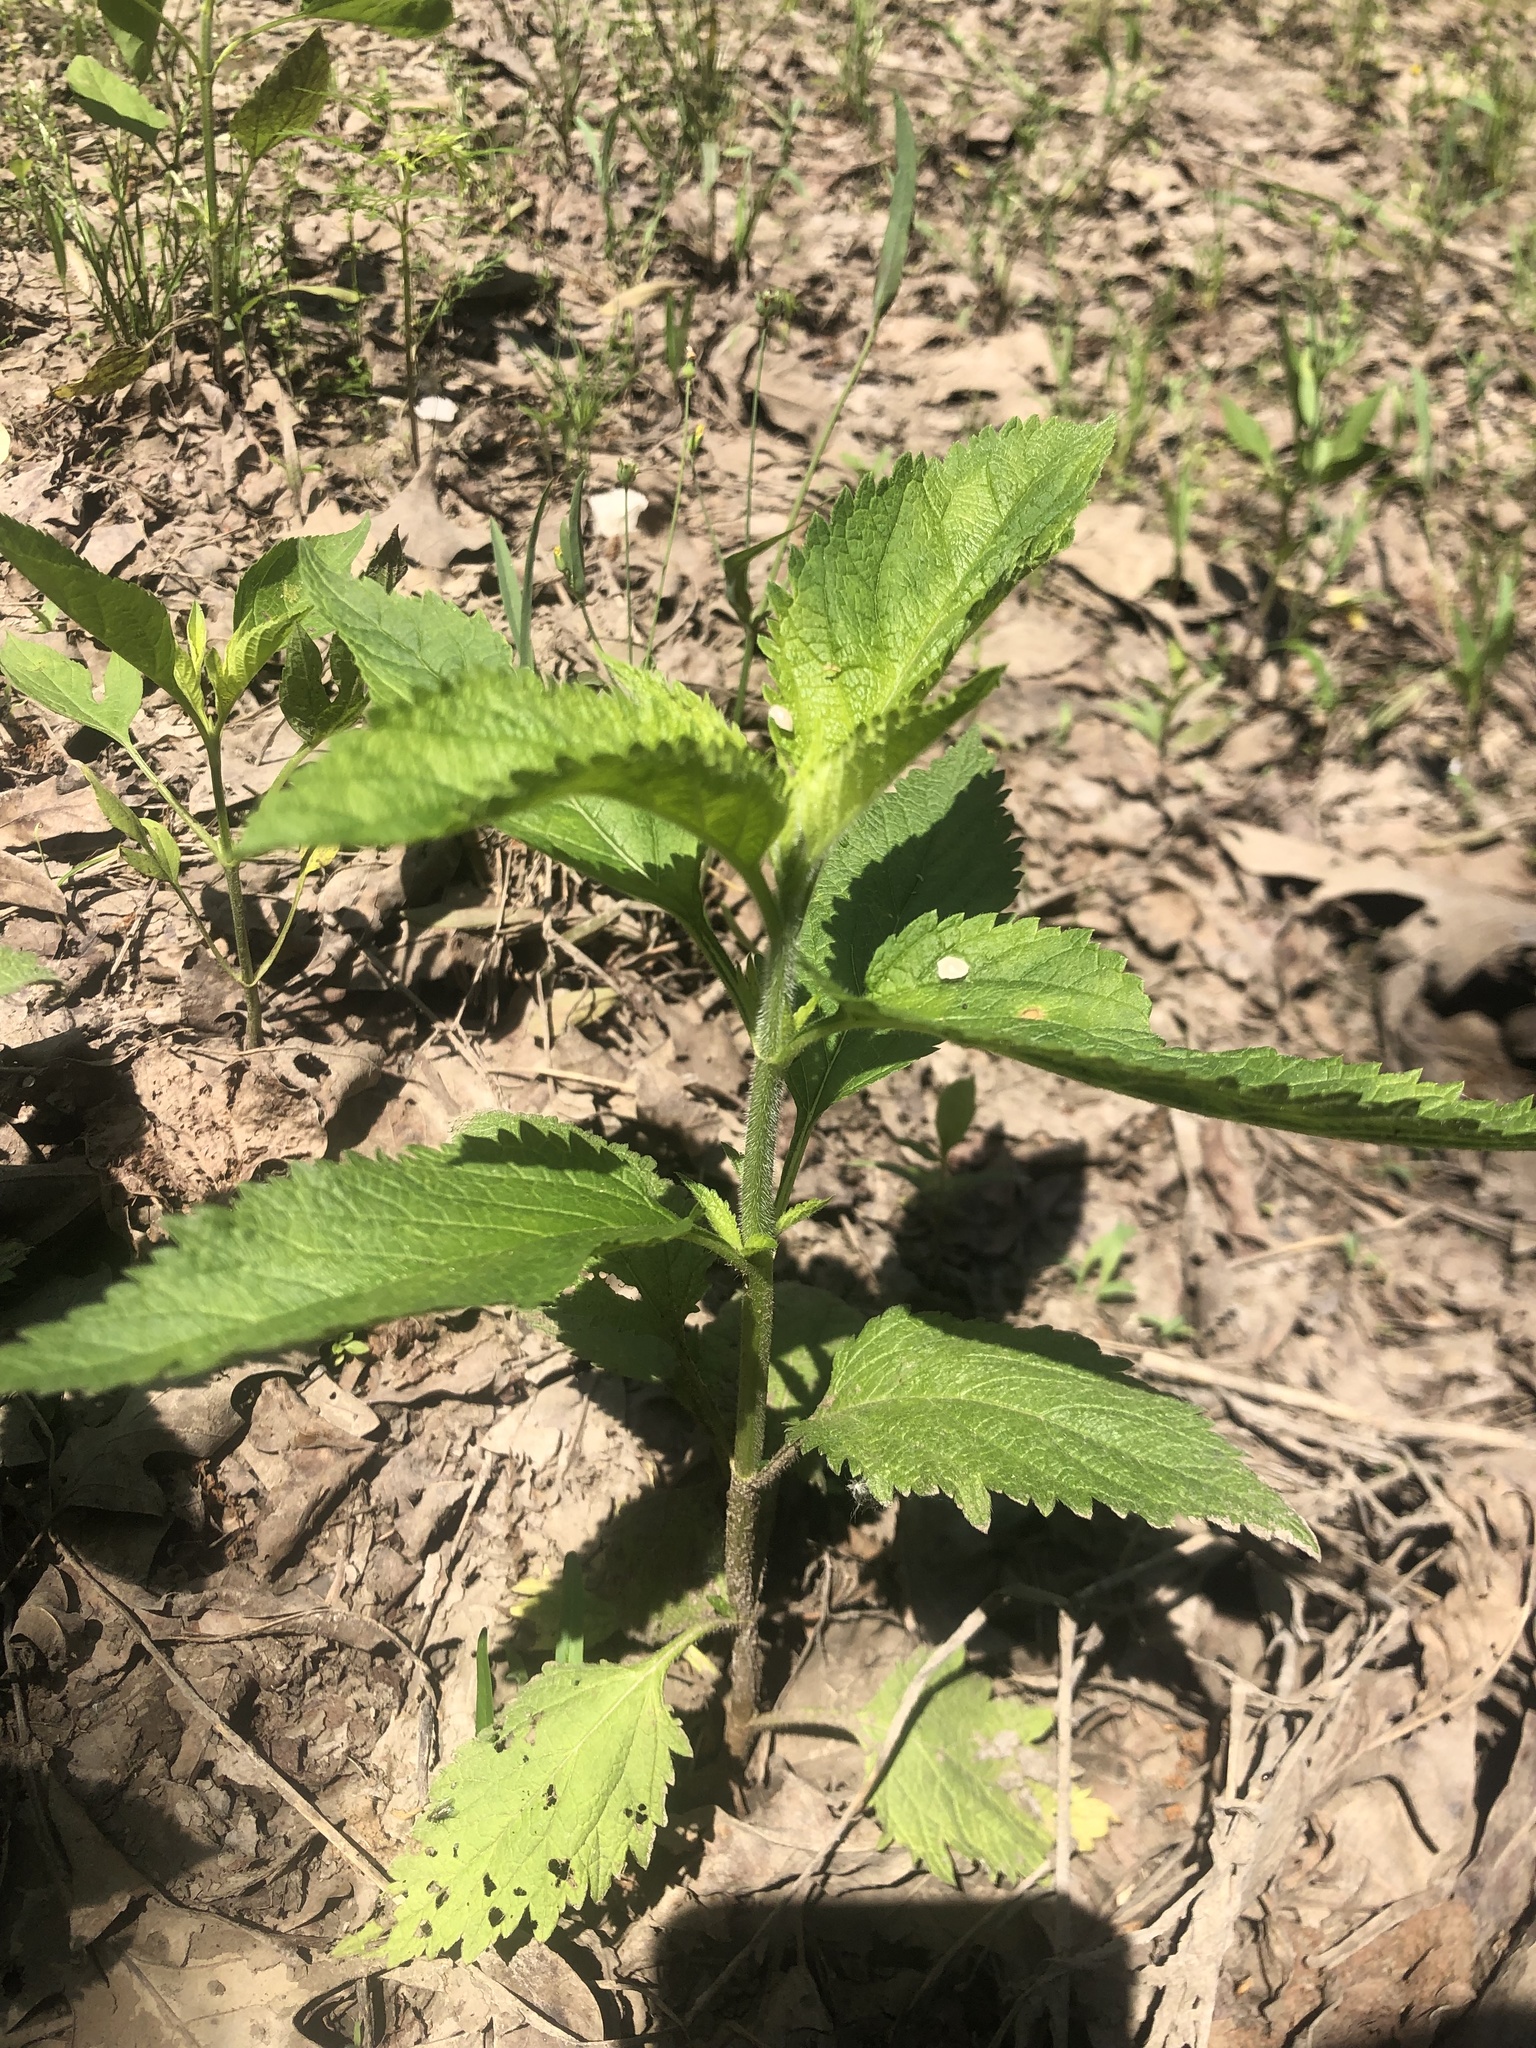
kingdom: Plantae
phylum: Tracheophyta
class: Magnoliopsida
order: Lamiales
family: Verbenaceae
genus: Verbena
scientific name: Verbena urticifolia
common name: Nettle-leaved vervain
